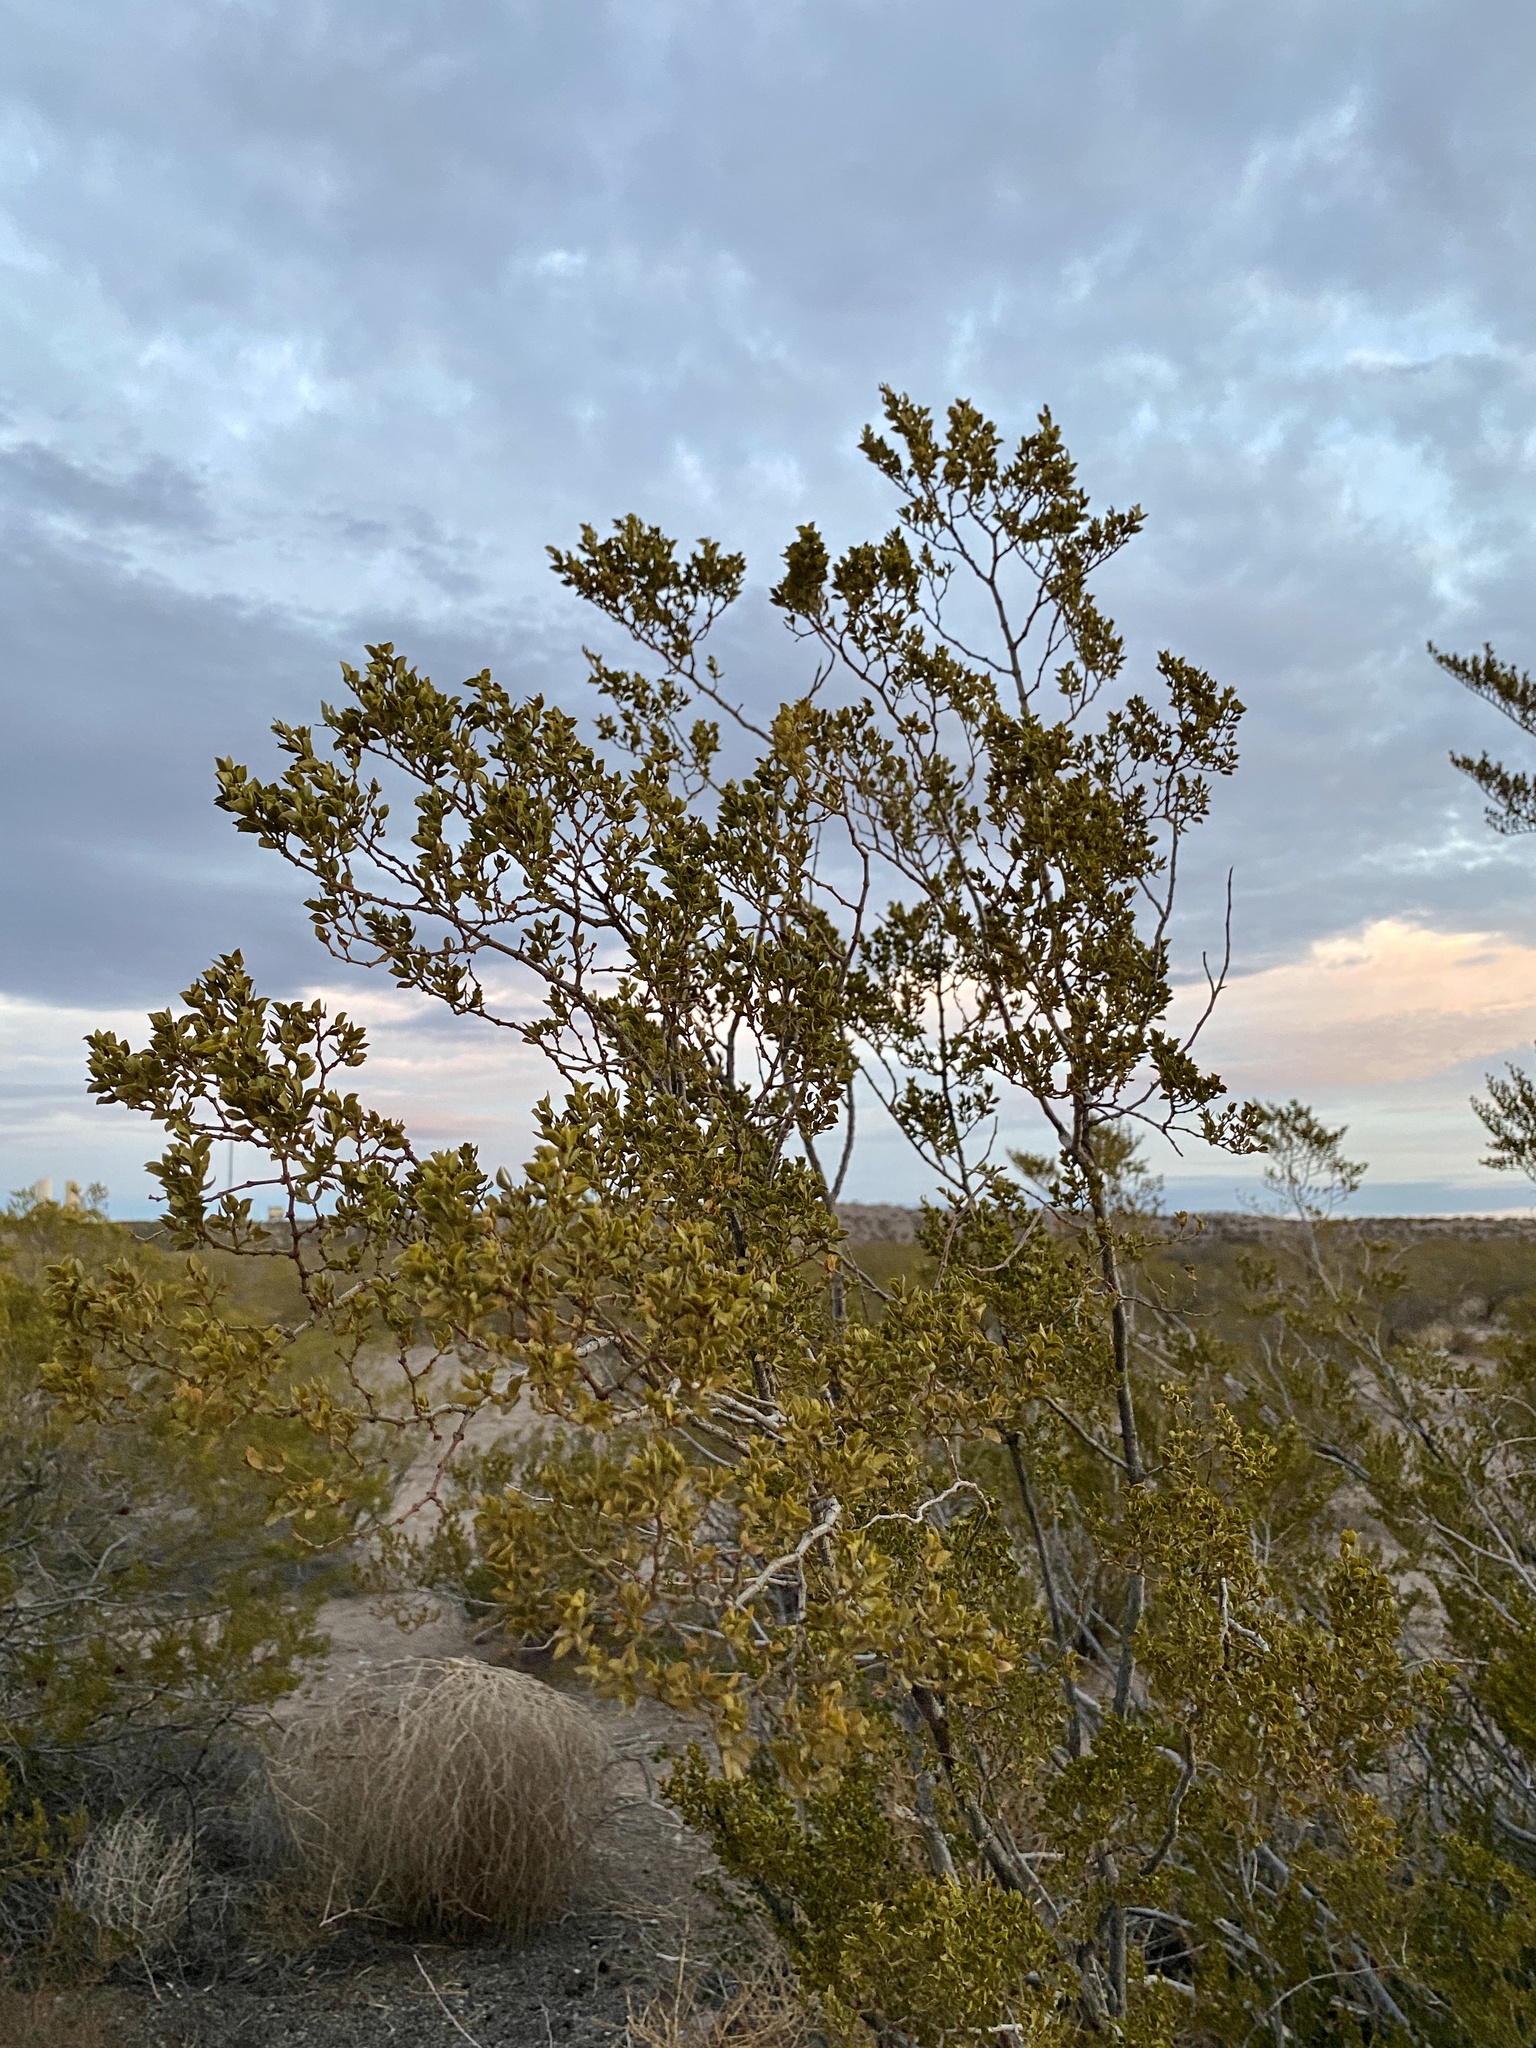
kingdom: Plantae
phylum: Tracheophyta
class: Magnoliopsida
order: Zygophyllales
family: Zygophyllaceae
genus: Larrea
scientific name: Larrea tridentata
